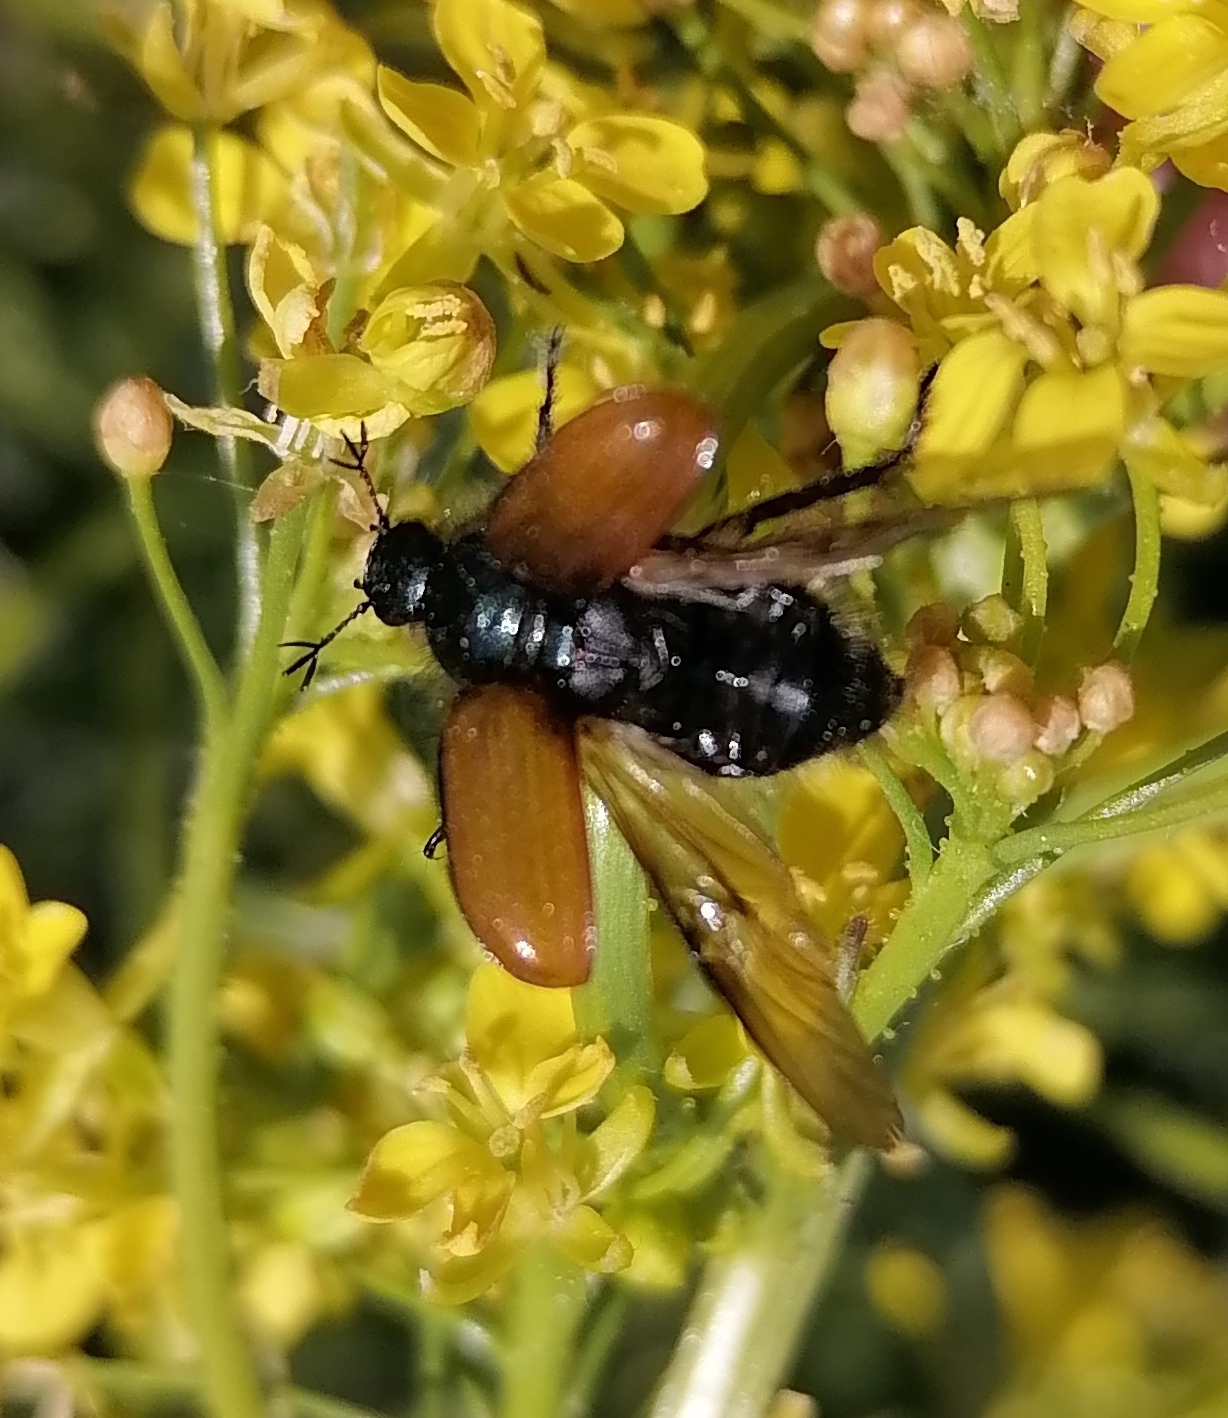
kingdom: Animalia
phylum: Arthropoda
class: Insecta
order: Coleoptera
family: Scarabaeidae
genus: Phyllopertha
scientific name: Phyllopertha horticola
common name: Garden chafer
